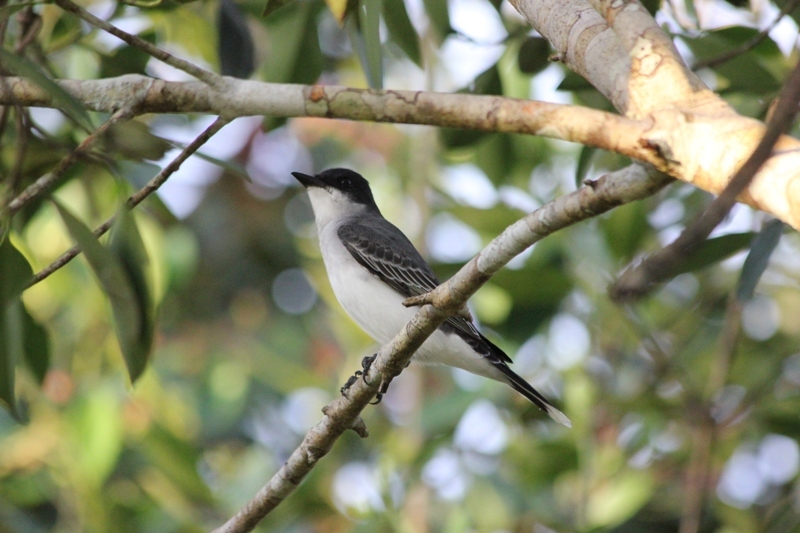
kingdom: Animalia
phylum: Chordata
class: Aves
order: Passeriformes
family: Tyrannidae
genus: Tyrannus
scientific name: Tyrannus tyrannus
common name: Eastern kingbird
